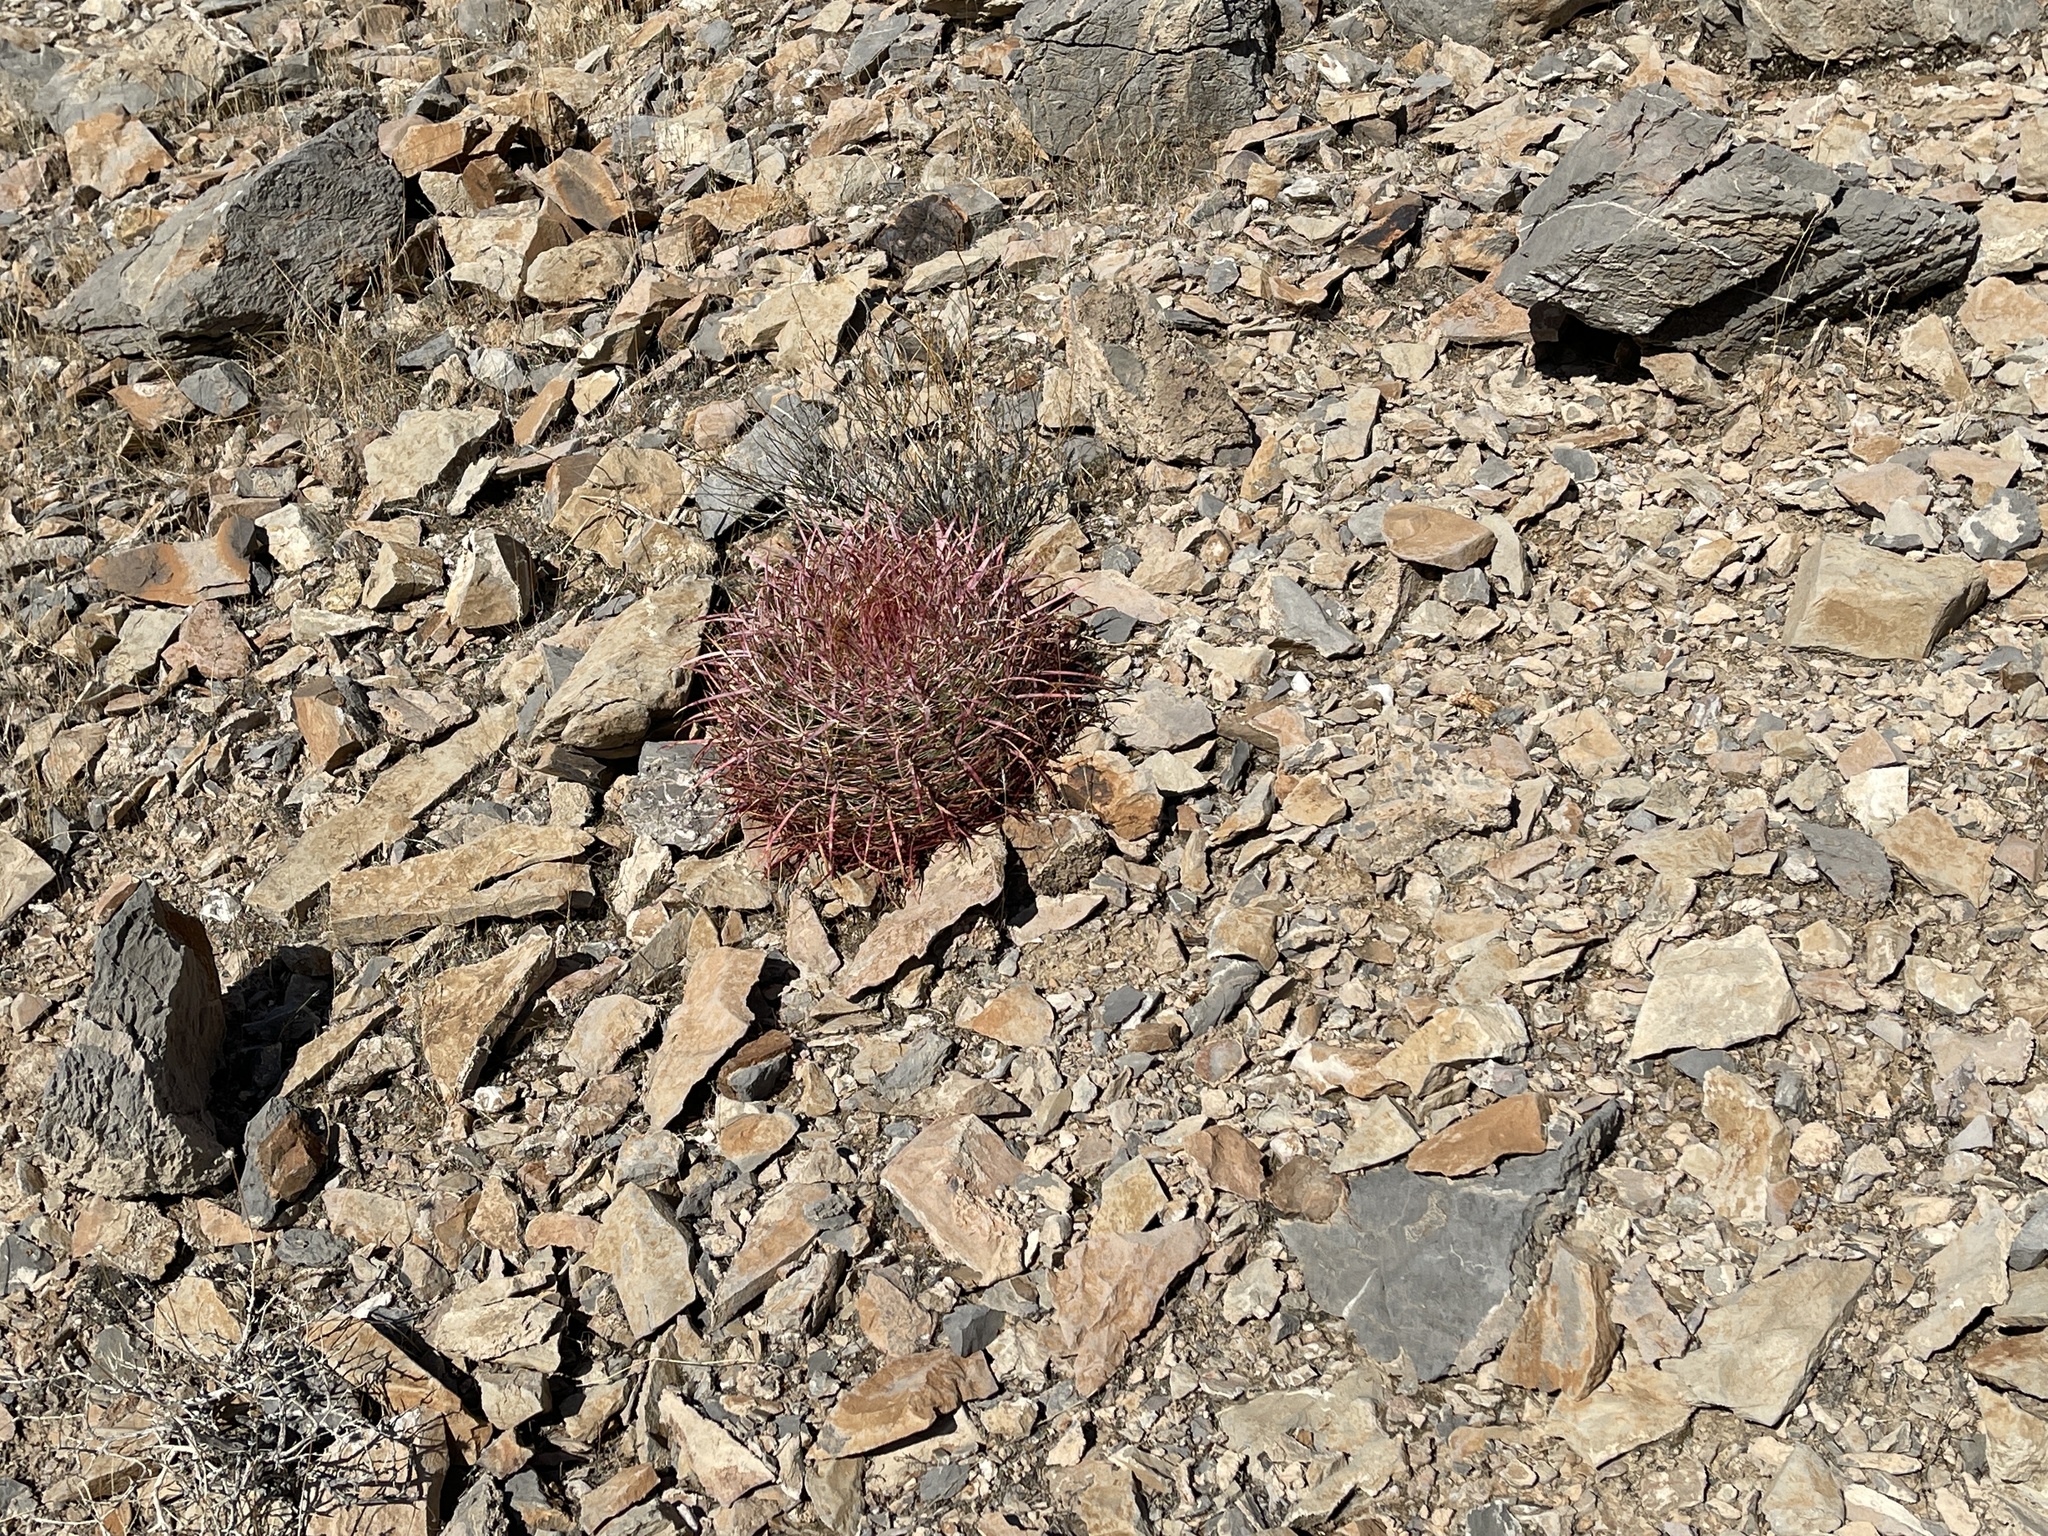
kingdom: Plantae
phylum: Tracheophyta
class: Magnoliopsida
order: Caryophyllales
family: Cactaceae
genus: Ferocactus
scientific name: Ferocactus cylindraceus
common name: California barrel cactus
